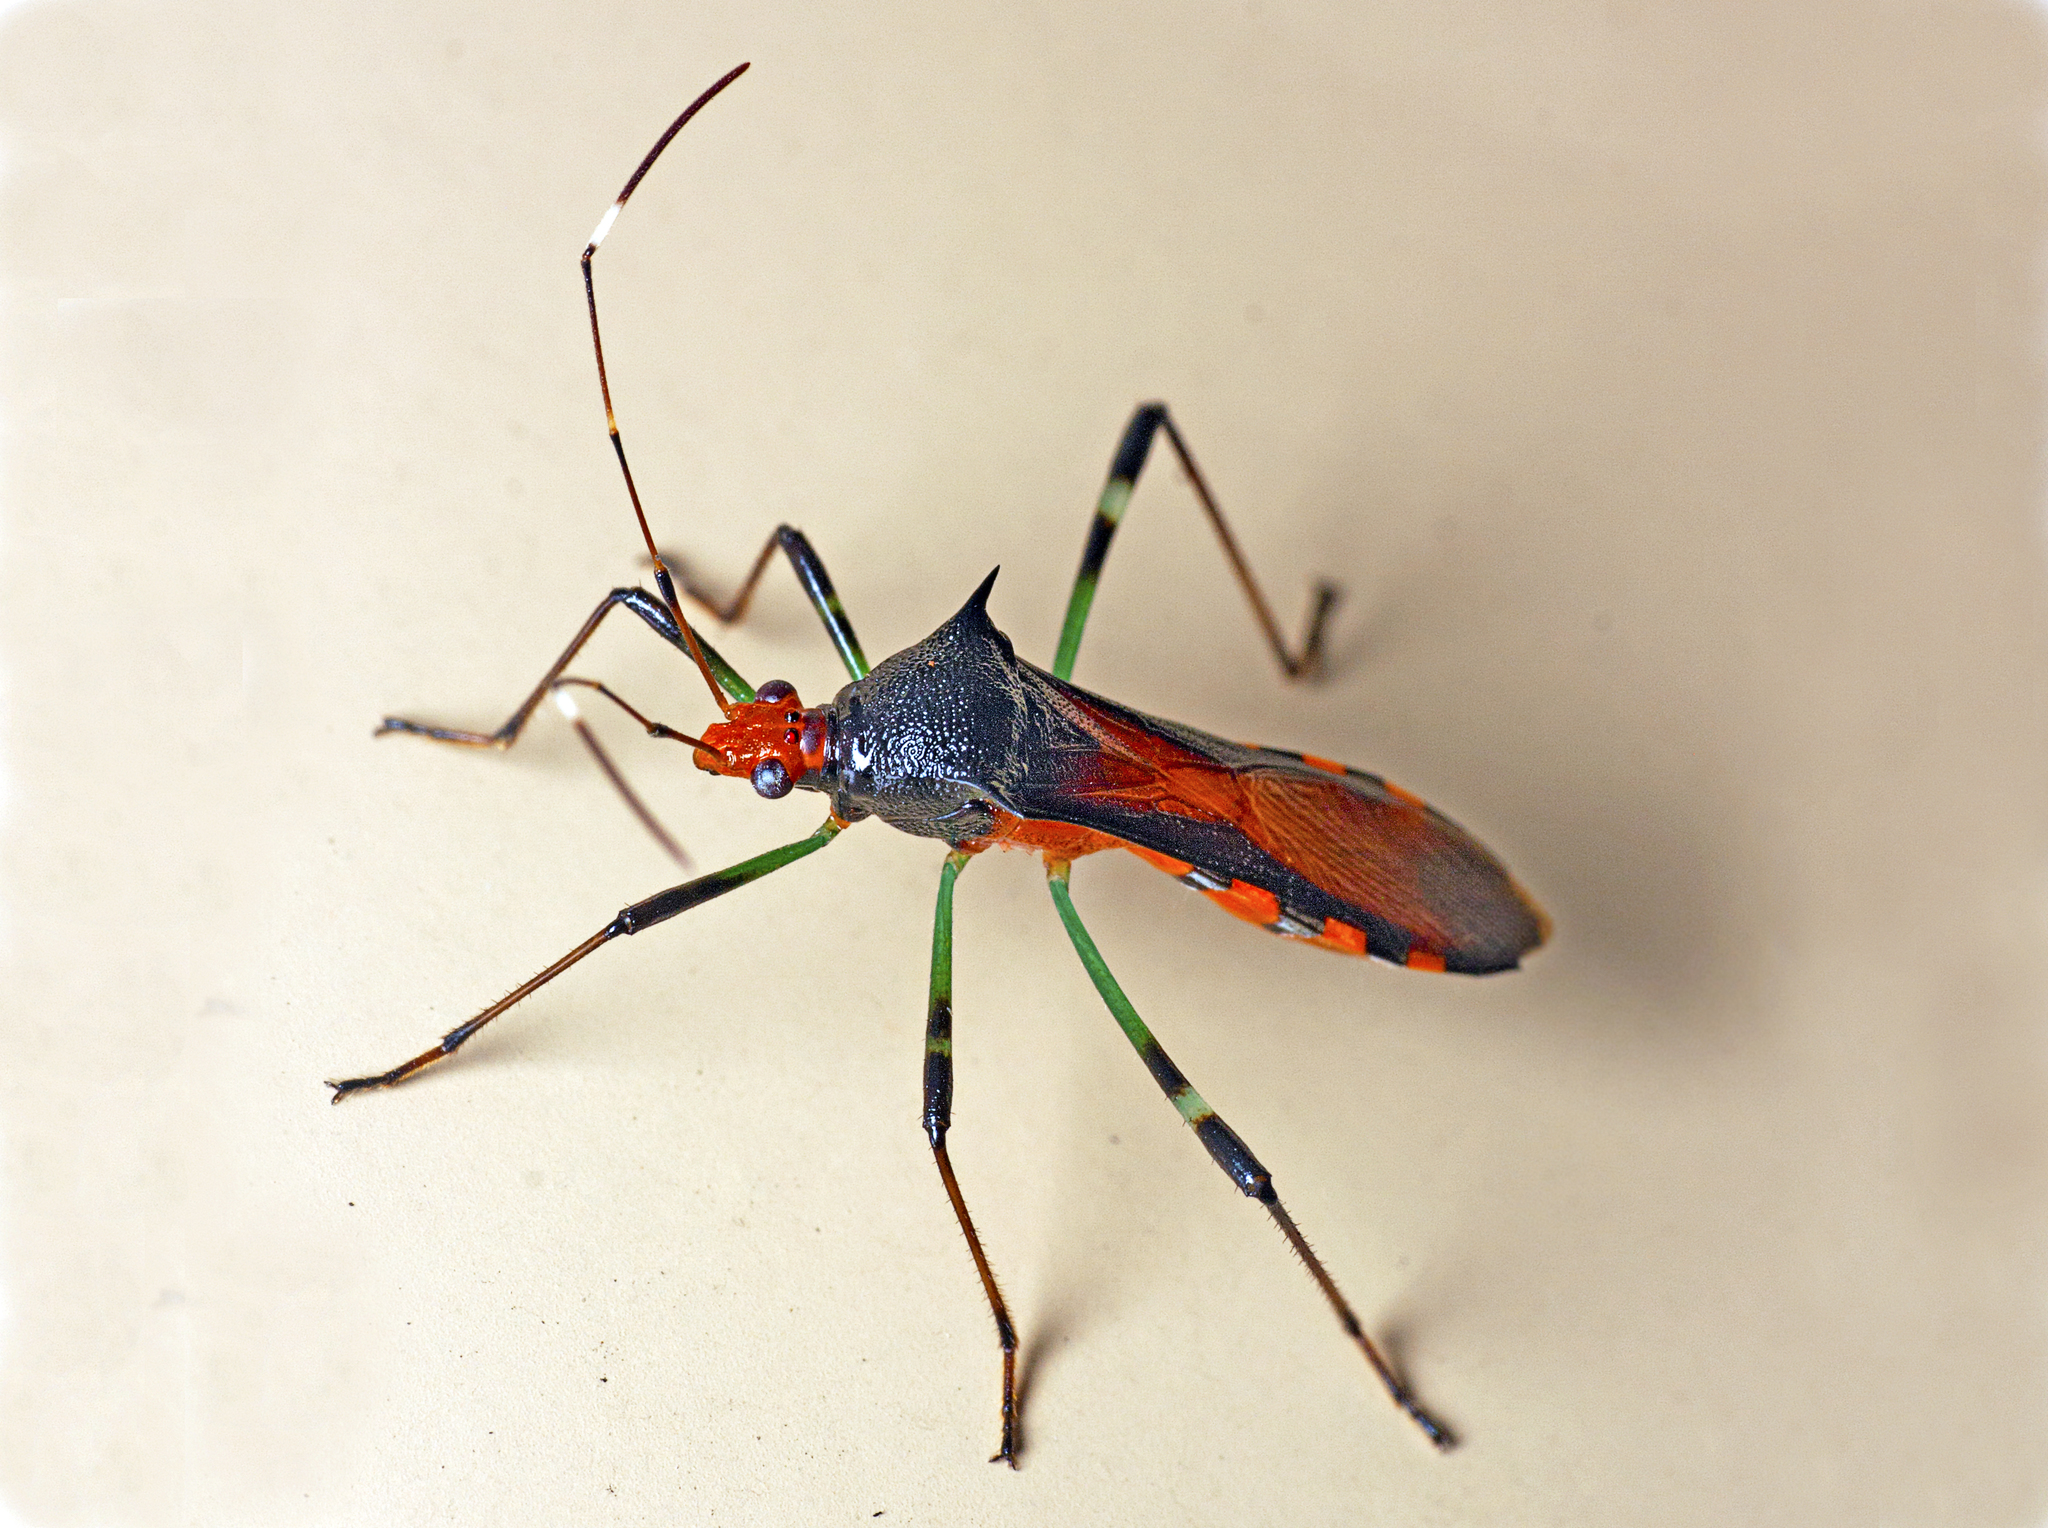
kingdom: Animalia
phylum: Arthropoda
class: Insecta
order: Hemiptera
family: Alydidae
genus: Noliphus
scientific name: Noliphus erythrocephalus
